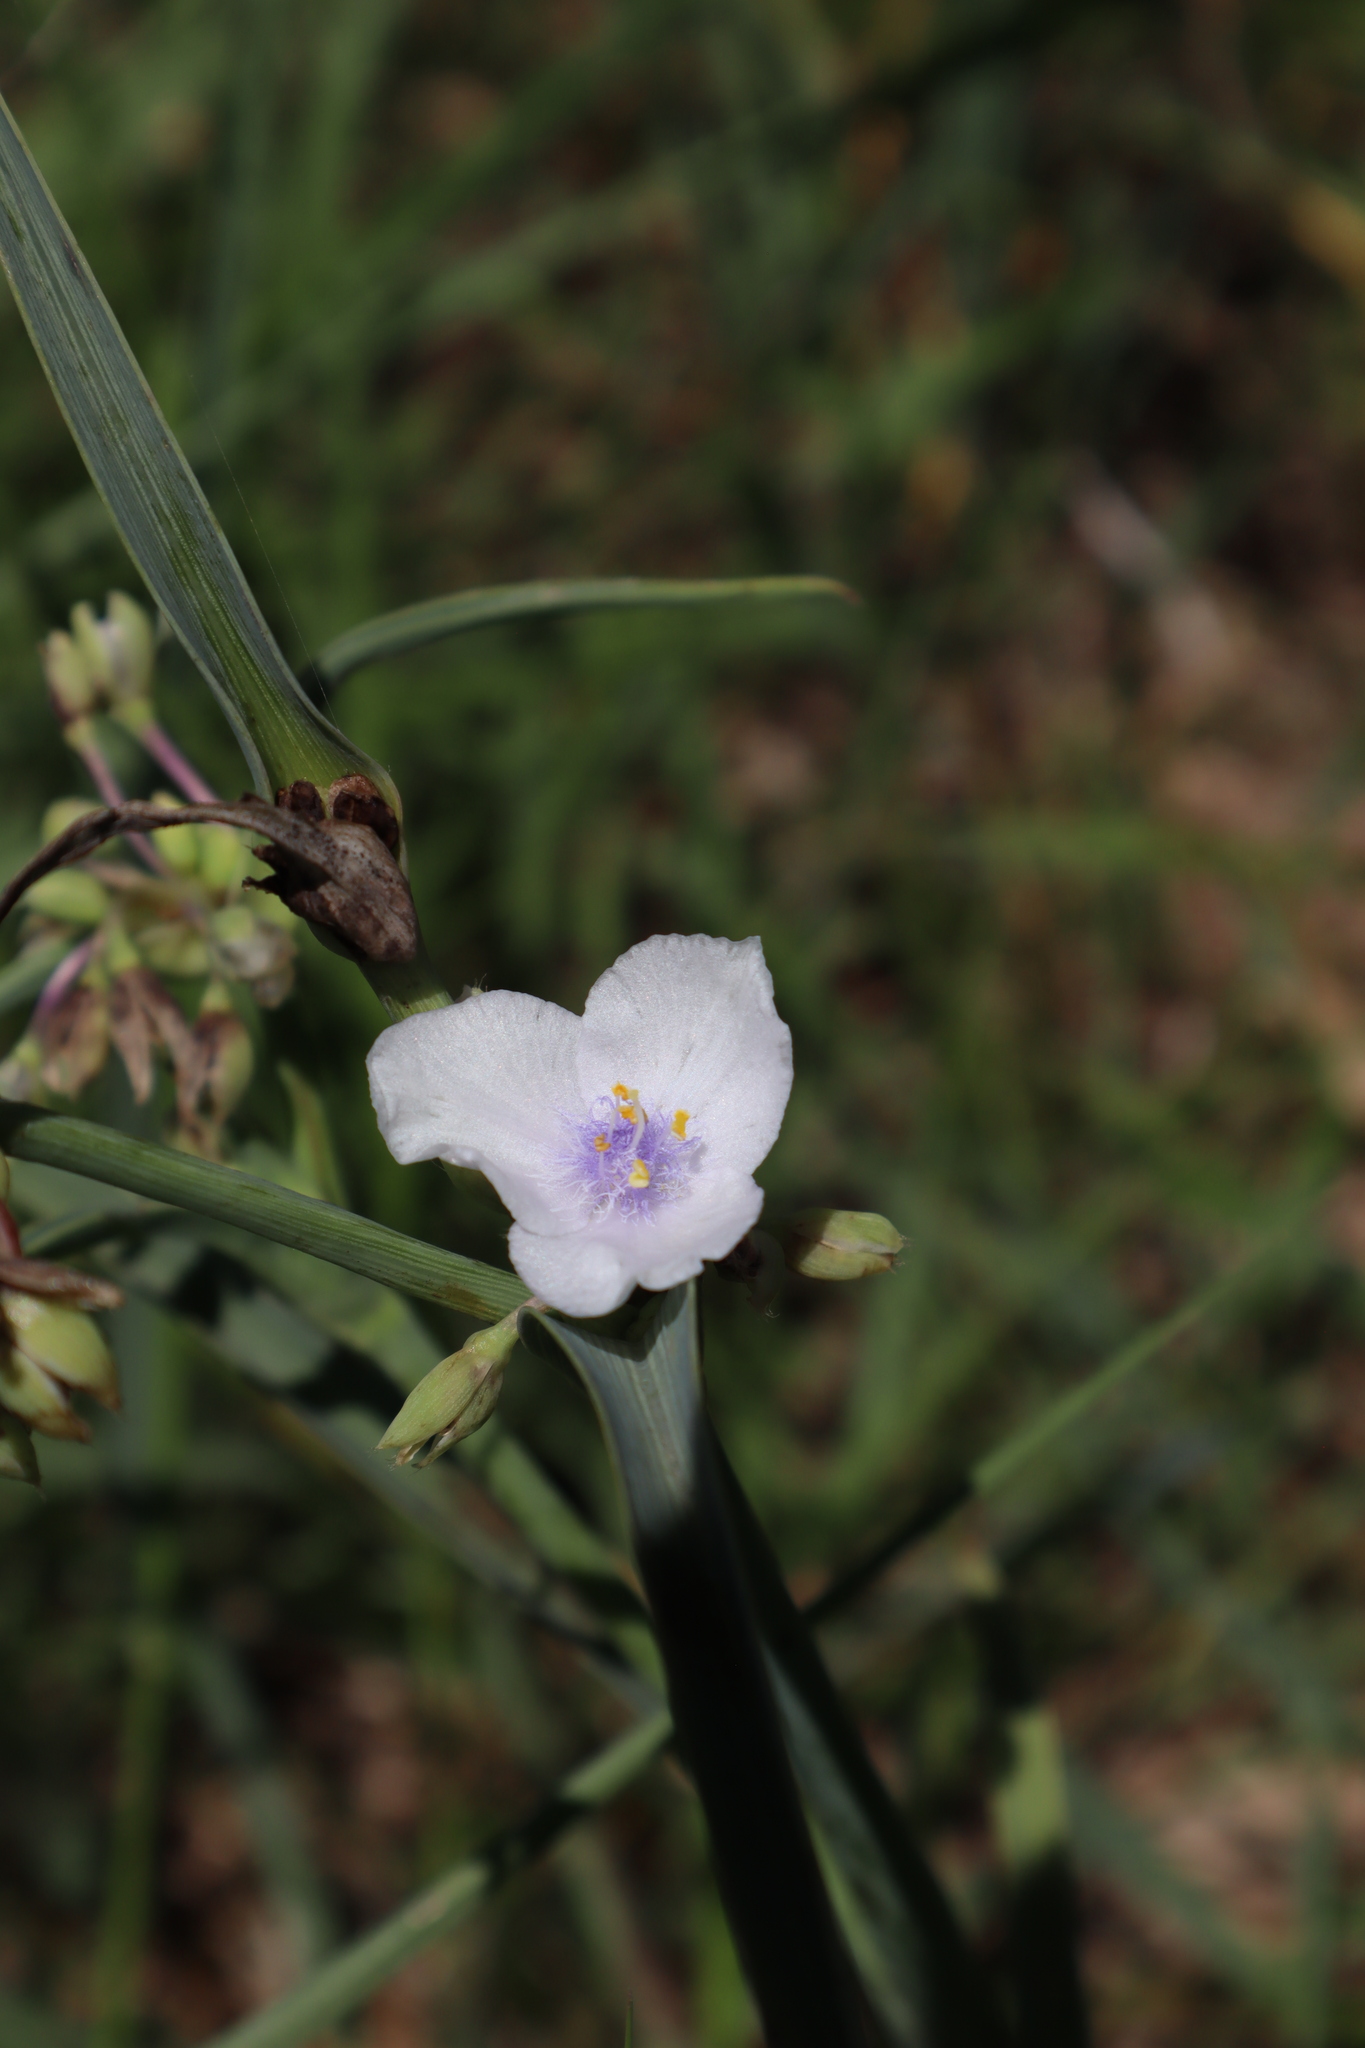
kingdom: Plantae
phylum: Tracheophyta
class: Liliopsida
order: Commelinales
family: Commelinaceae
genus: Tradescantia
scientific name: Tradescantia ohiensis
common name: Ohio spiderwort
